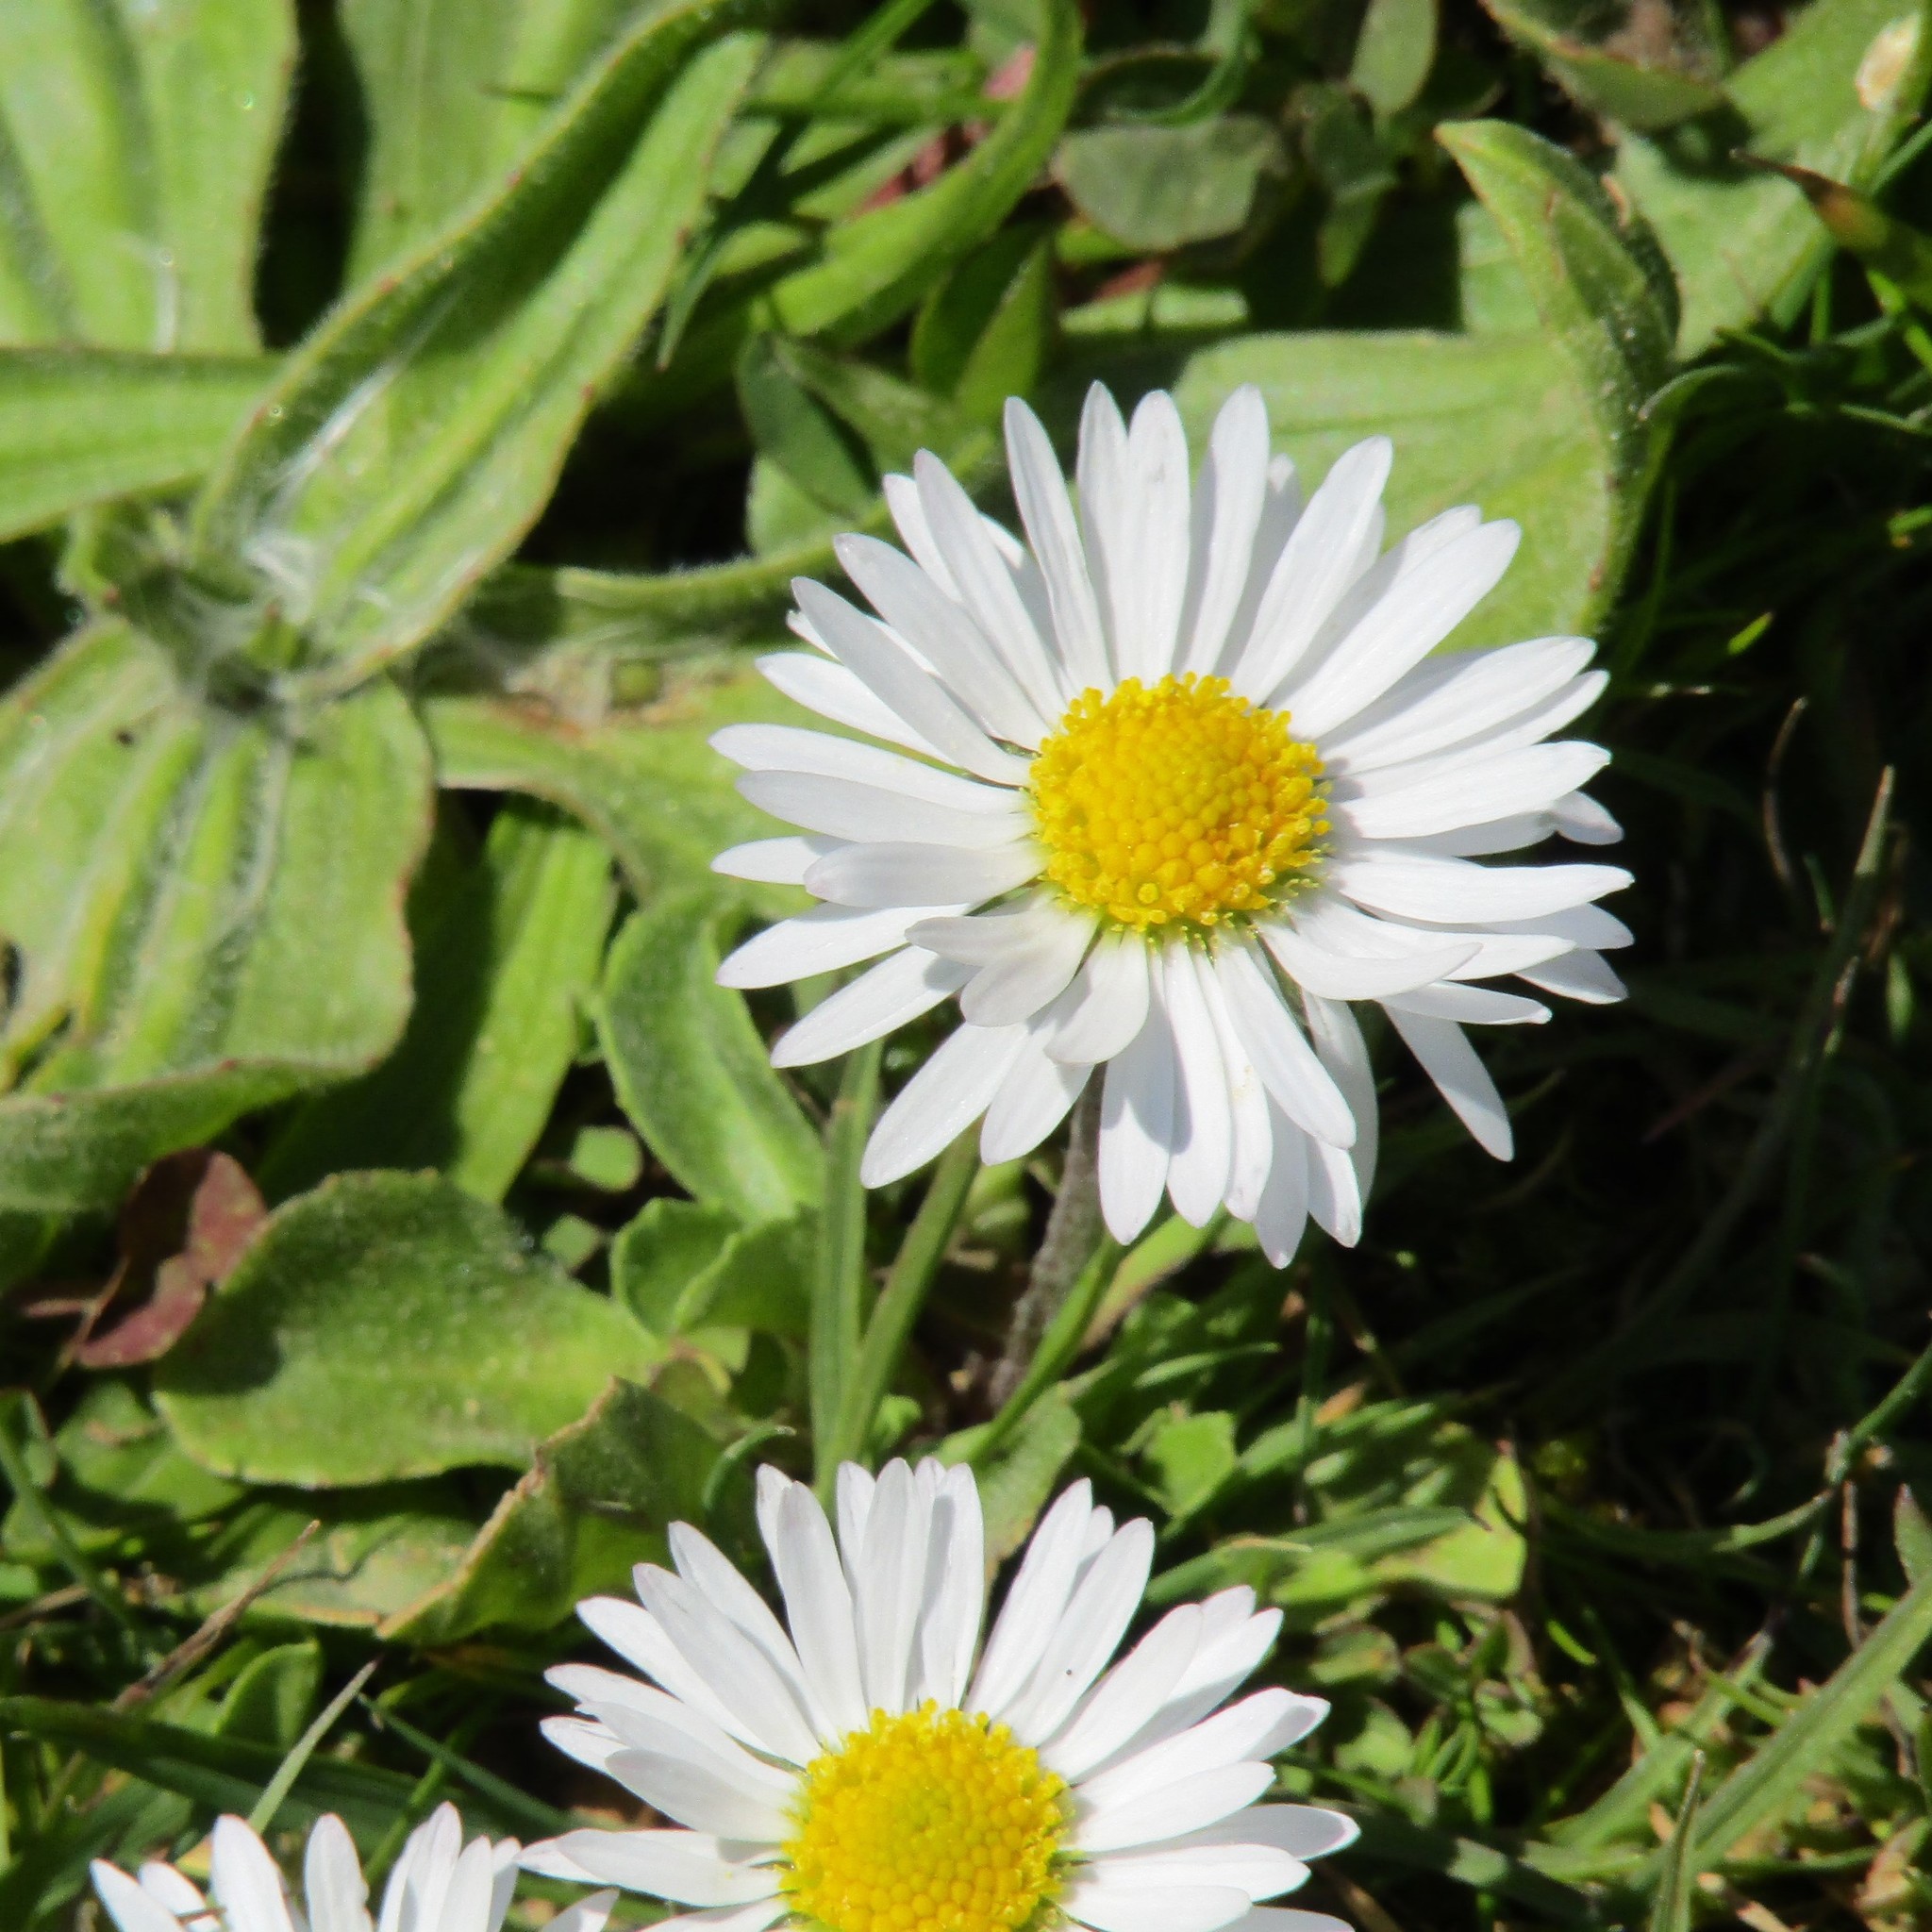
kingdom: Plantae
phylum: Tracheophyta
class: Magnoliopsida
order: Asterales
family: Asteraceae
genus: Bellis
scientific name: Bellis perennis
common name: Lawndaisy
